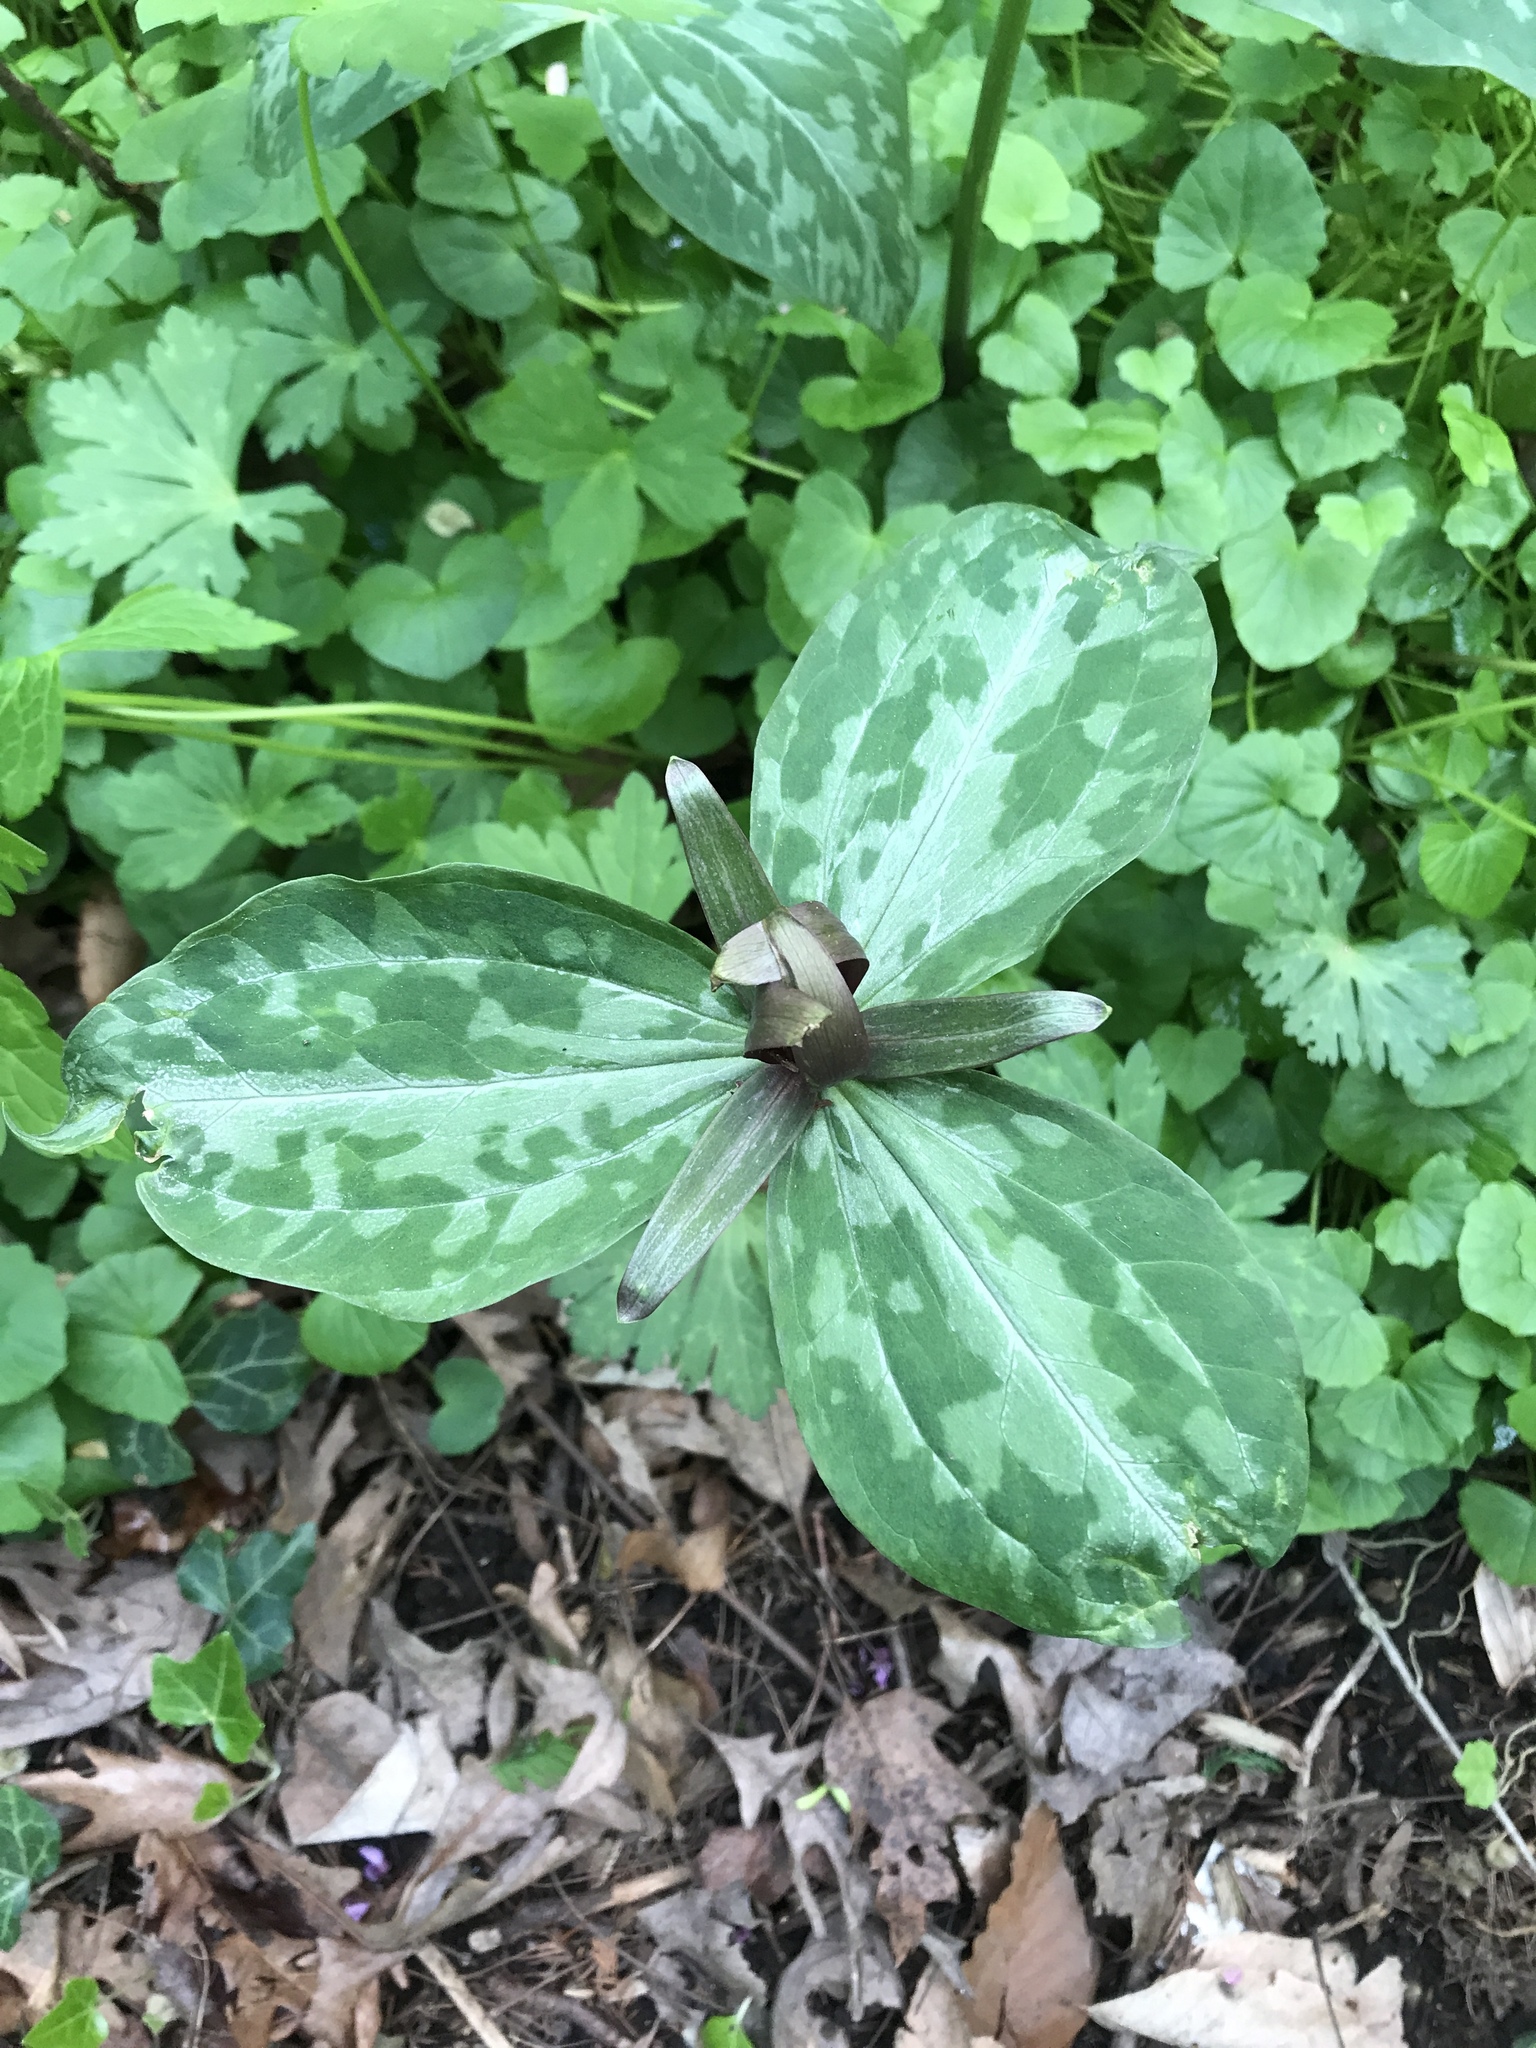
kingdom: Plantae
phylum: Tracheophyta
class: Liliopsida
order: Liliales
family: Melanthiaceae
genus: Trillium
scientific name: Trillium cuneatum
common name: Cuneate trillium
